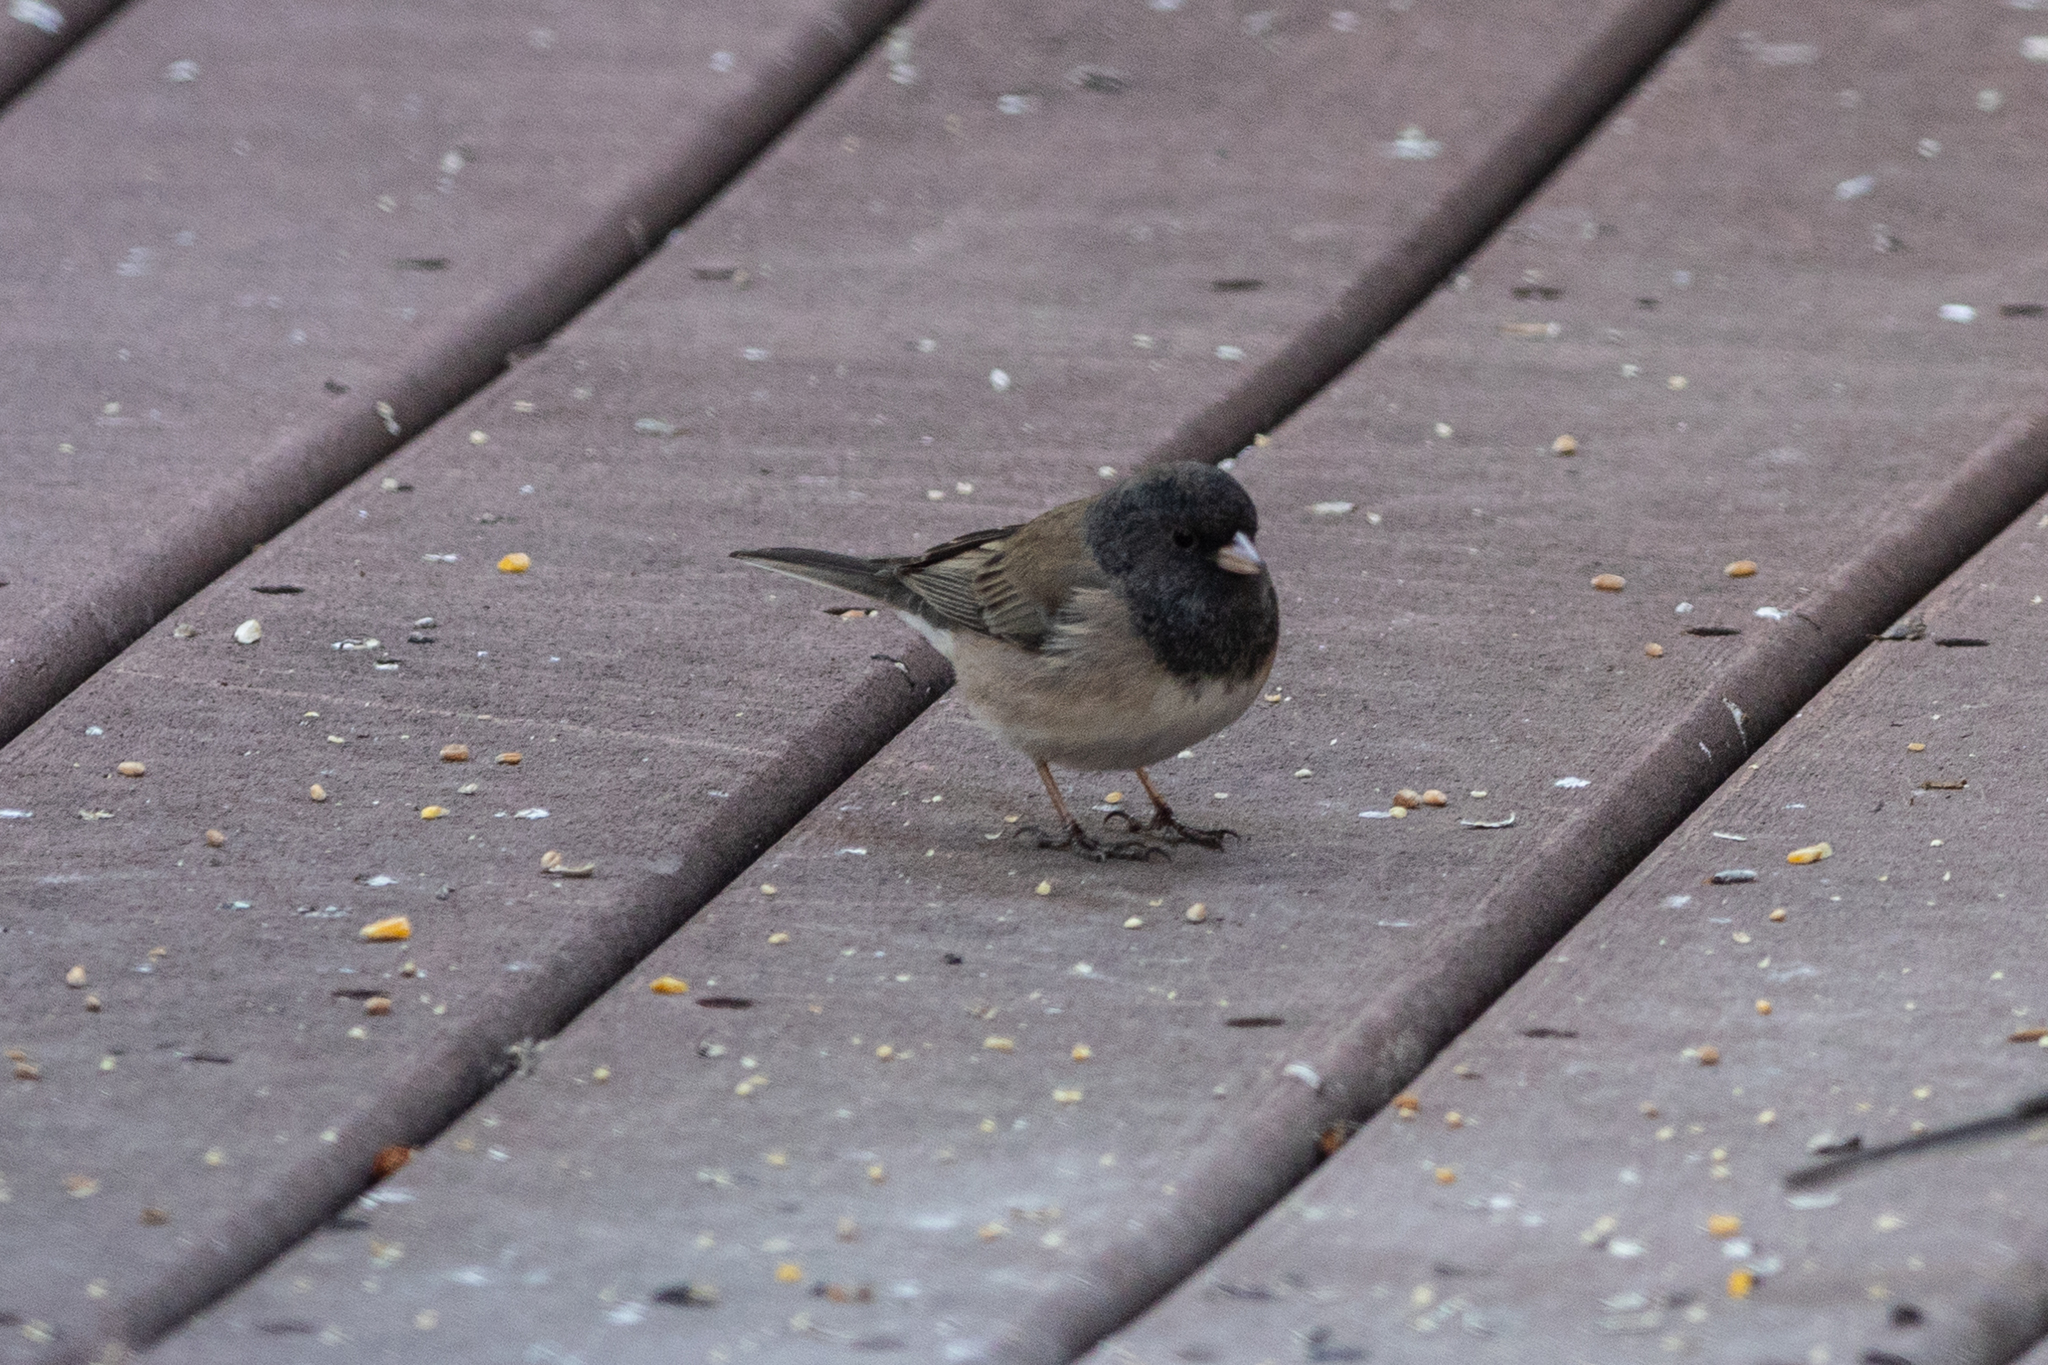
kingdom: Animalia
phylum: Chordata
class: Aves
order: Passeriformes
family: Passerellidae
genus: Junco
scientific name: Junco hyemalis
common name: Dark-eyed junco
